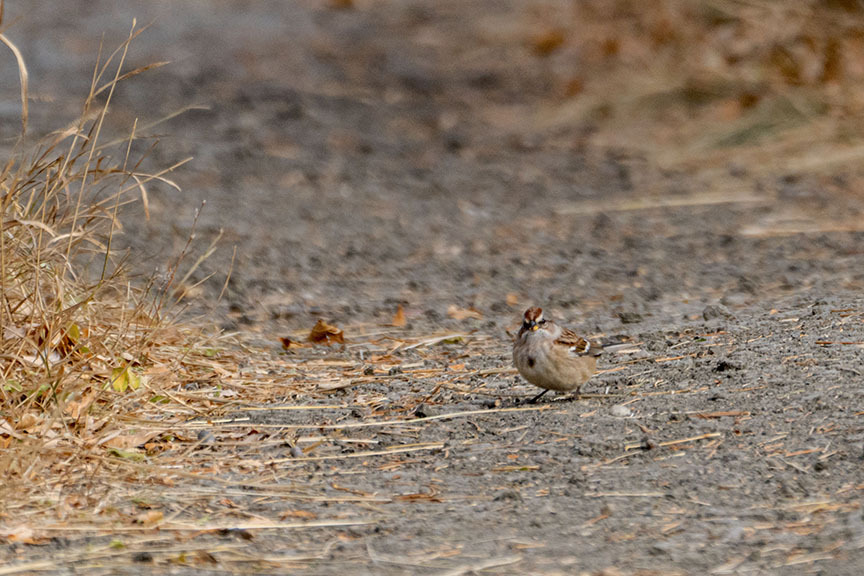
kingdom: Animalia
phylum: Chordata
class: Aves
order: Passeriformes
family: Passerellidae
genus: Spizelloides
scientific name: Spizelloides arborea
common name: American tree sparrow
